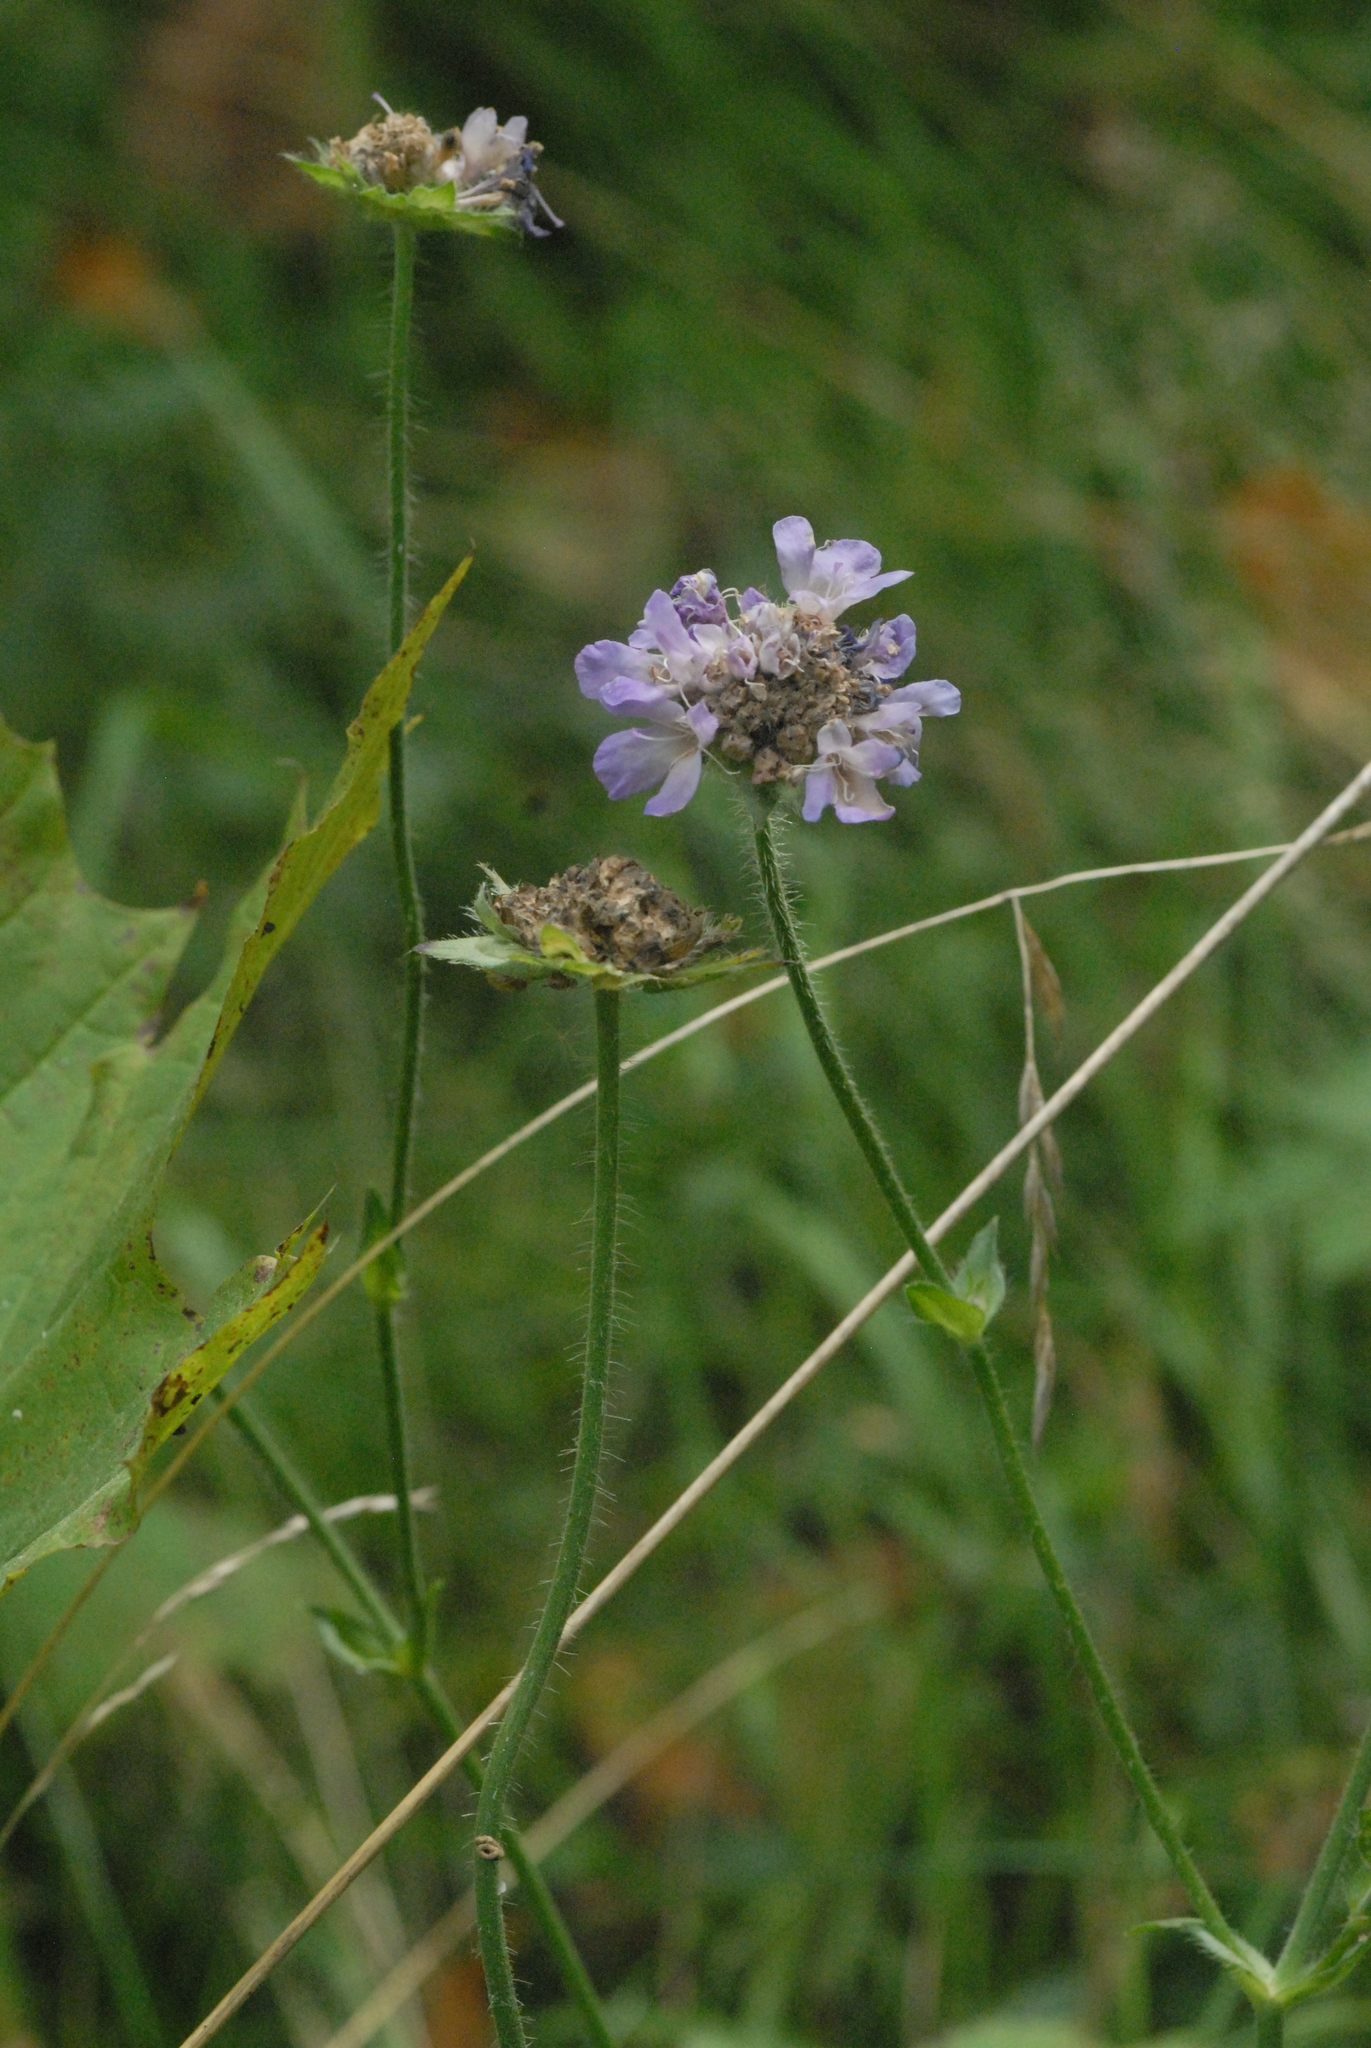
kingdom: Plantae
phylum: Tracheophyta
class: Magnoliopsida
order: Dipsacales
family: Caprifoliaceae
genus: Knautia
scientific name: Knautia arvensis
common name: Field scabiosa
